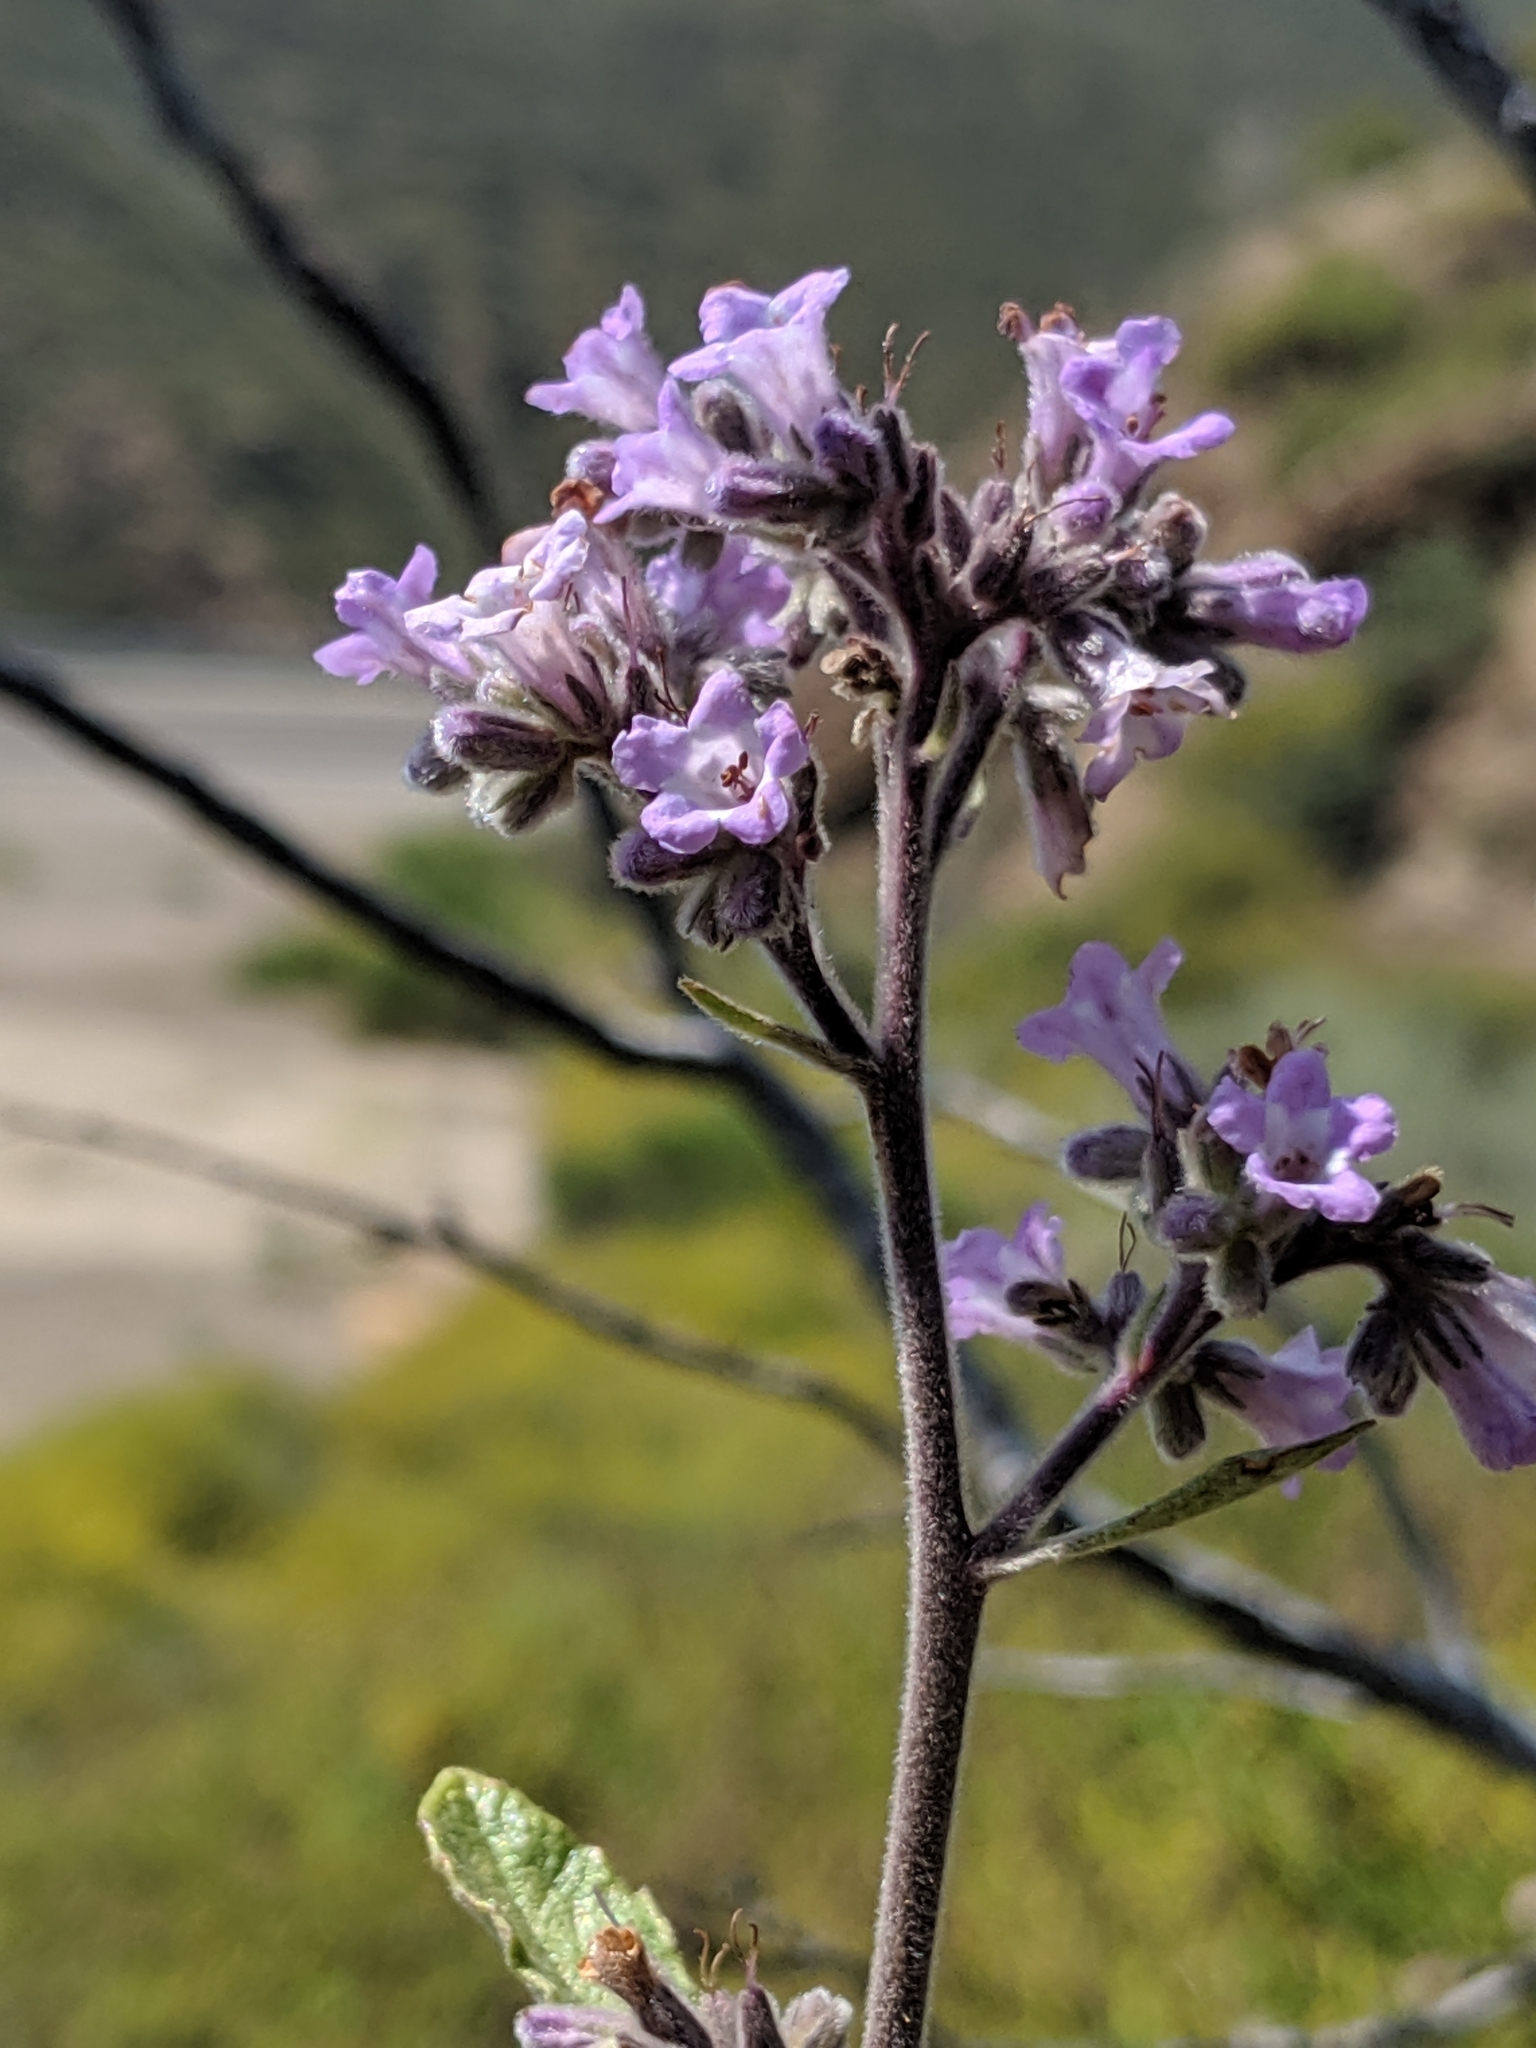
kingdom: Plantae
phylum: Tracheophyta
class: Magnoliopsida
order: Boraginales
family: Namaceae
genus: Eriodictyon
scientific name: Eriodictyon crassifolium
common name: Thick-leaf yerba-santa
